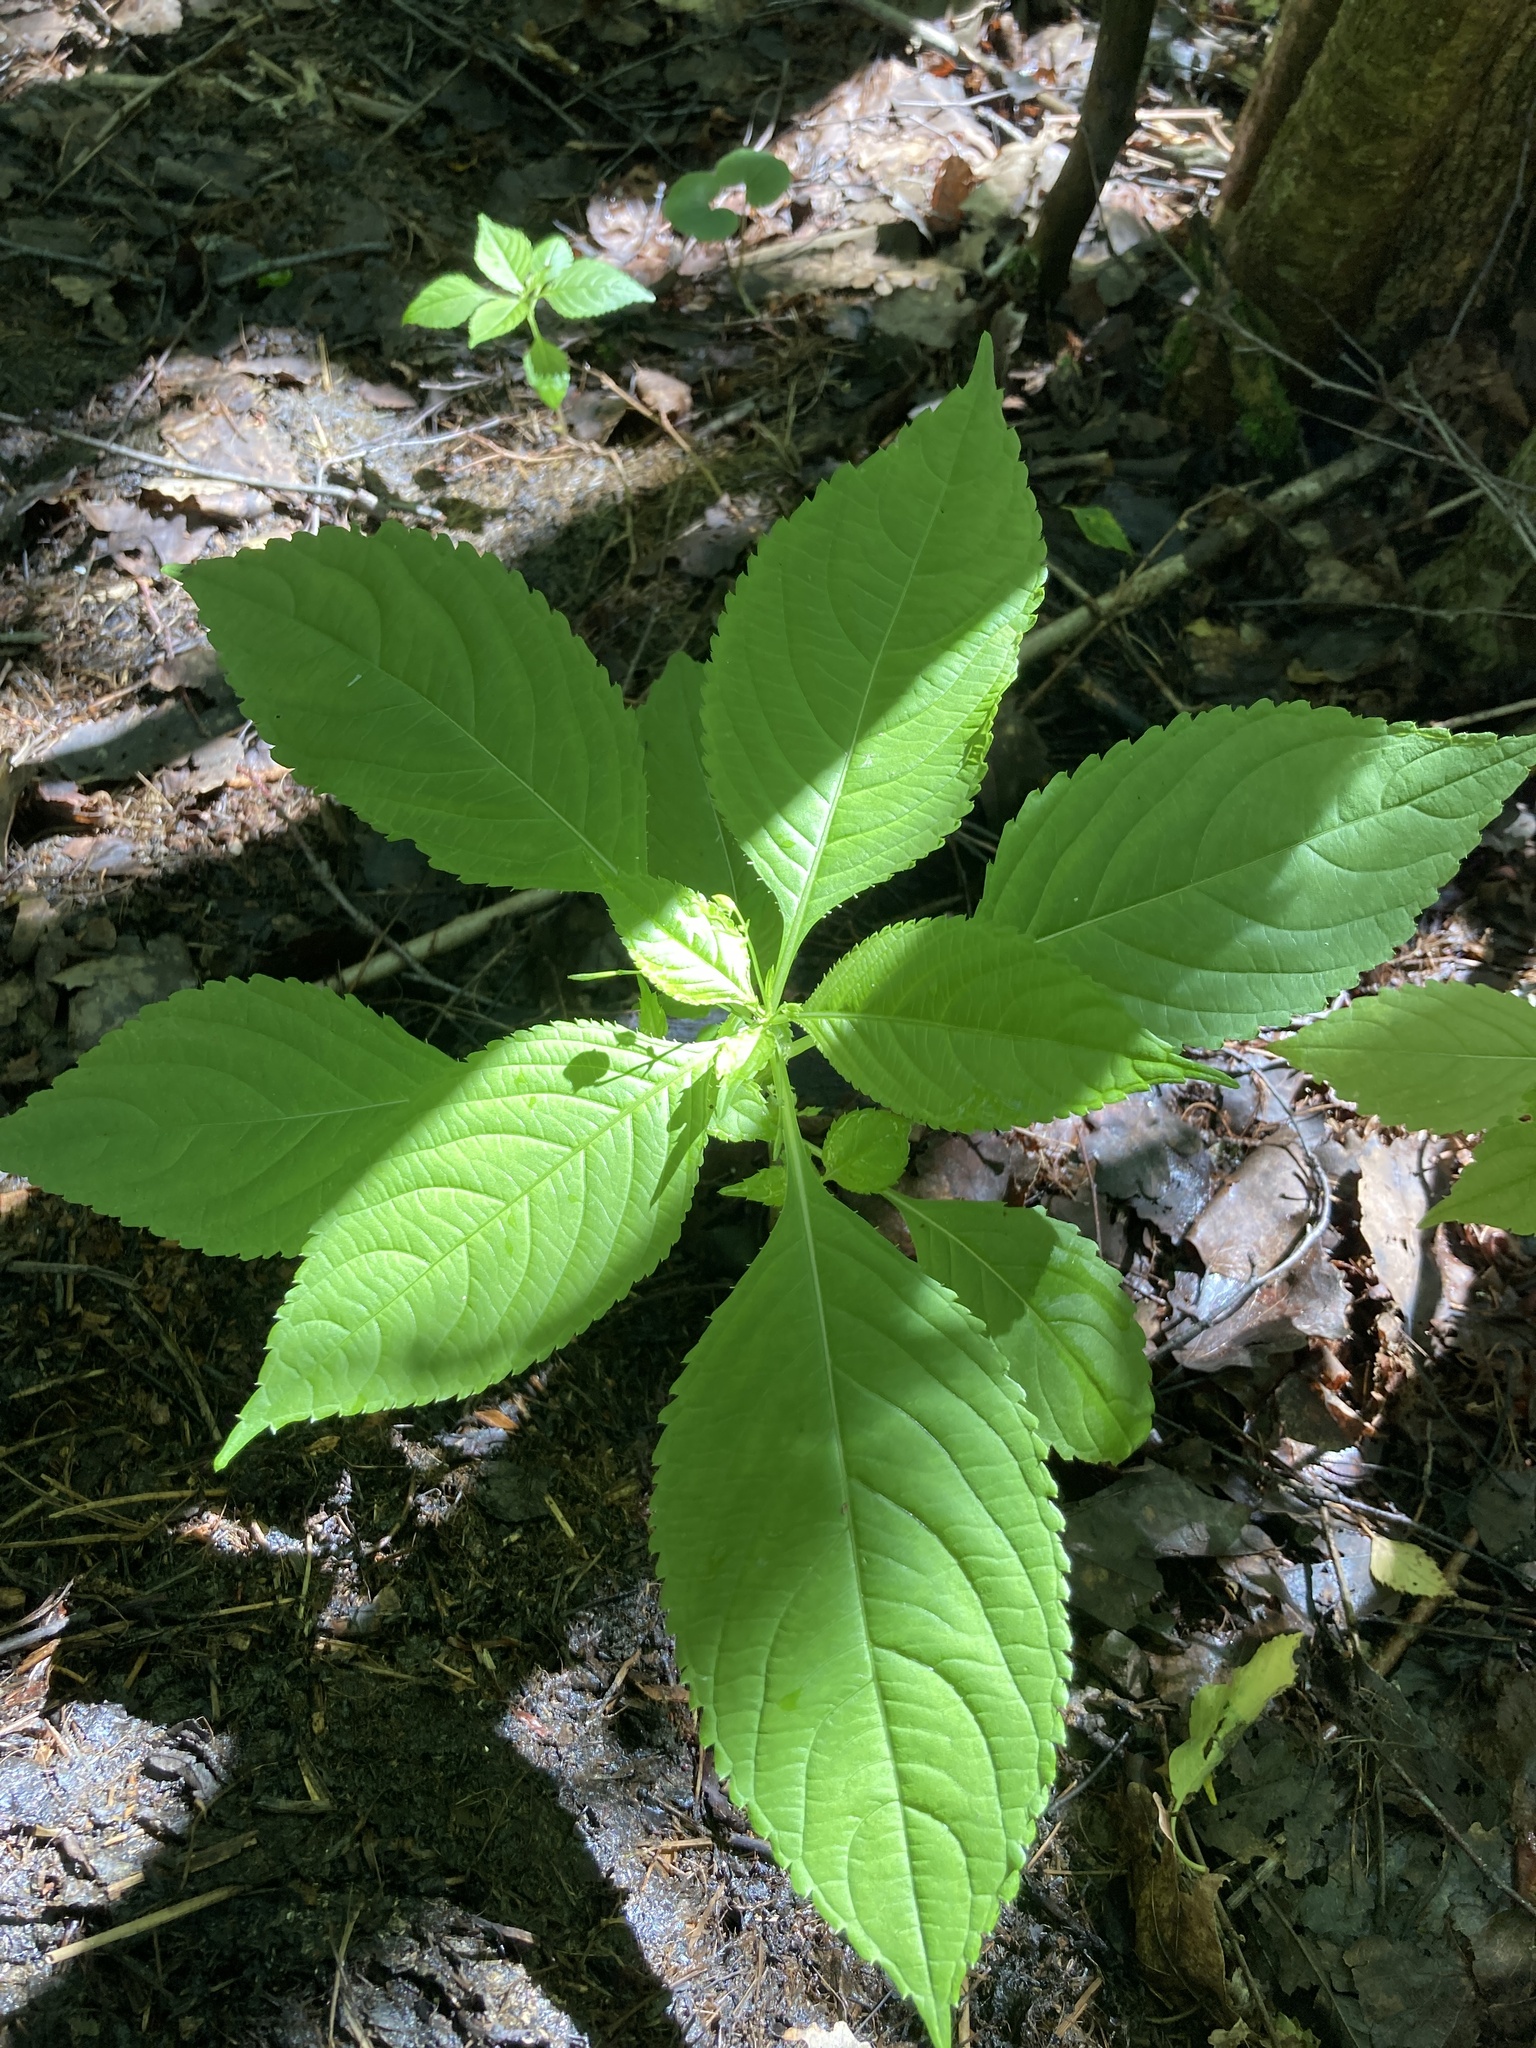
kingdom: Plantae
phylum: Tracheophyta
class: Magnoliopsida
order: Ericales
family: Balsaminaceae
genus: Impatiens
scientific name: Impatiens parviflora
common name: Small balsam
